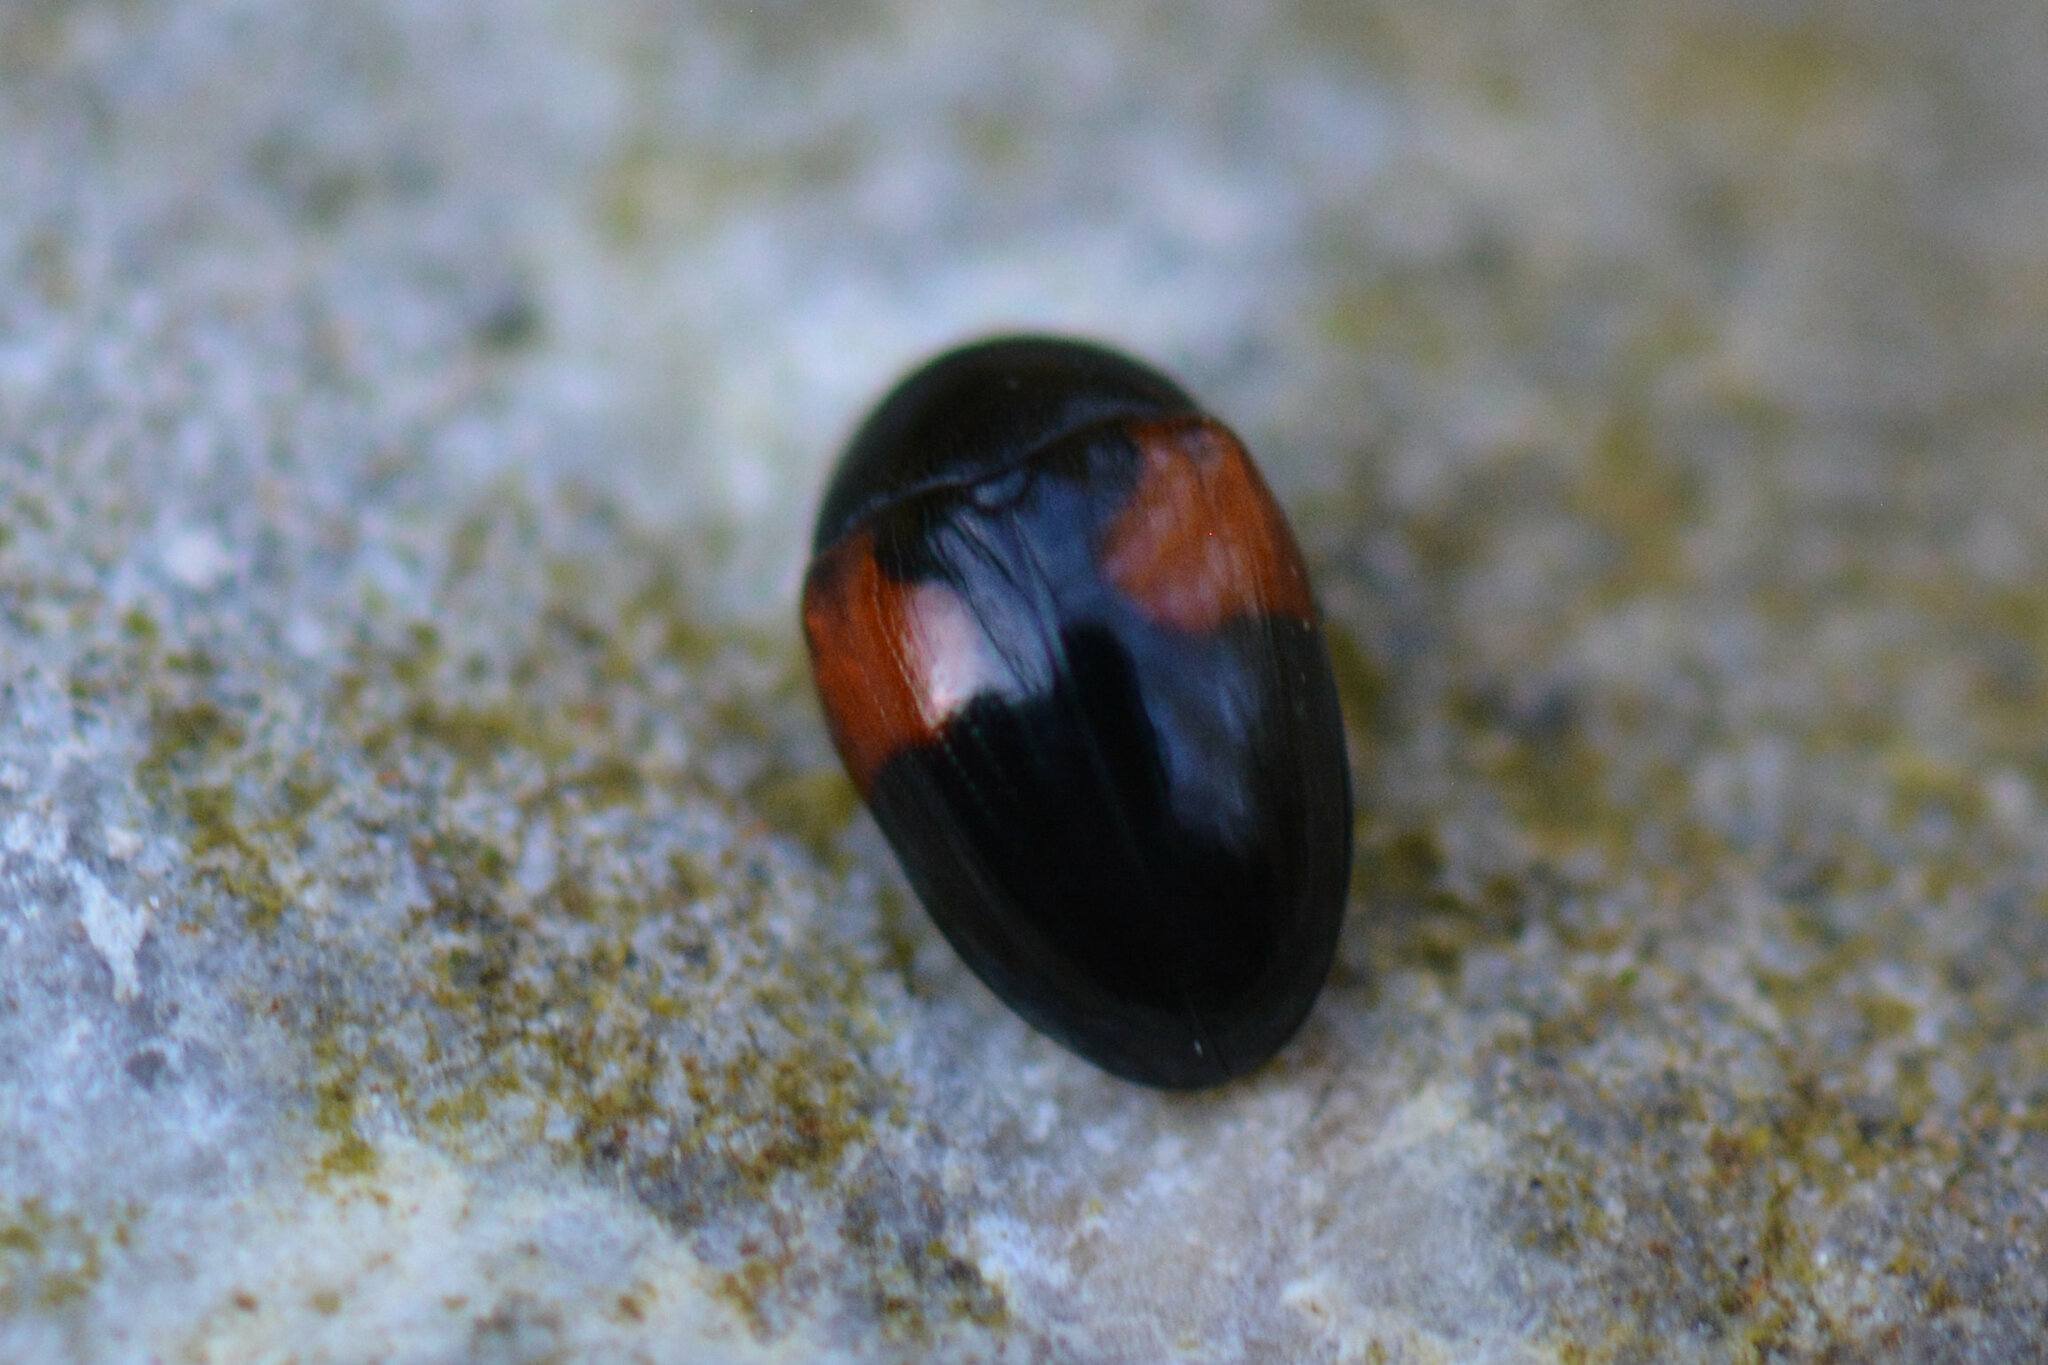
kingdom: Animalia
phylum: Arthropoda
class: Insecta
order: Coleoptera
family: Erotylidae
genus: Tritoma
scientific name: Tritoma bipustulata
